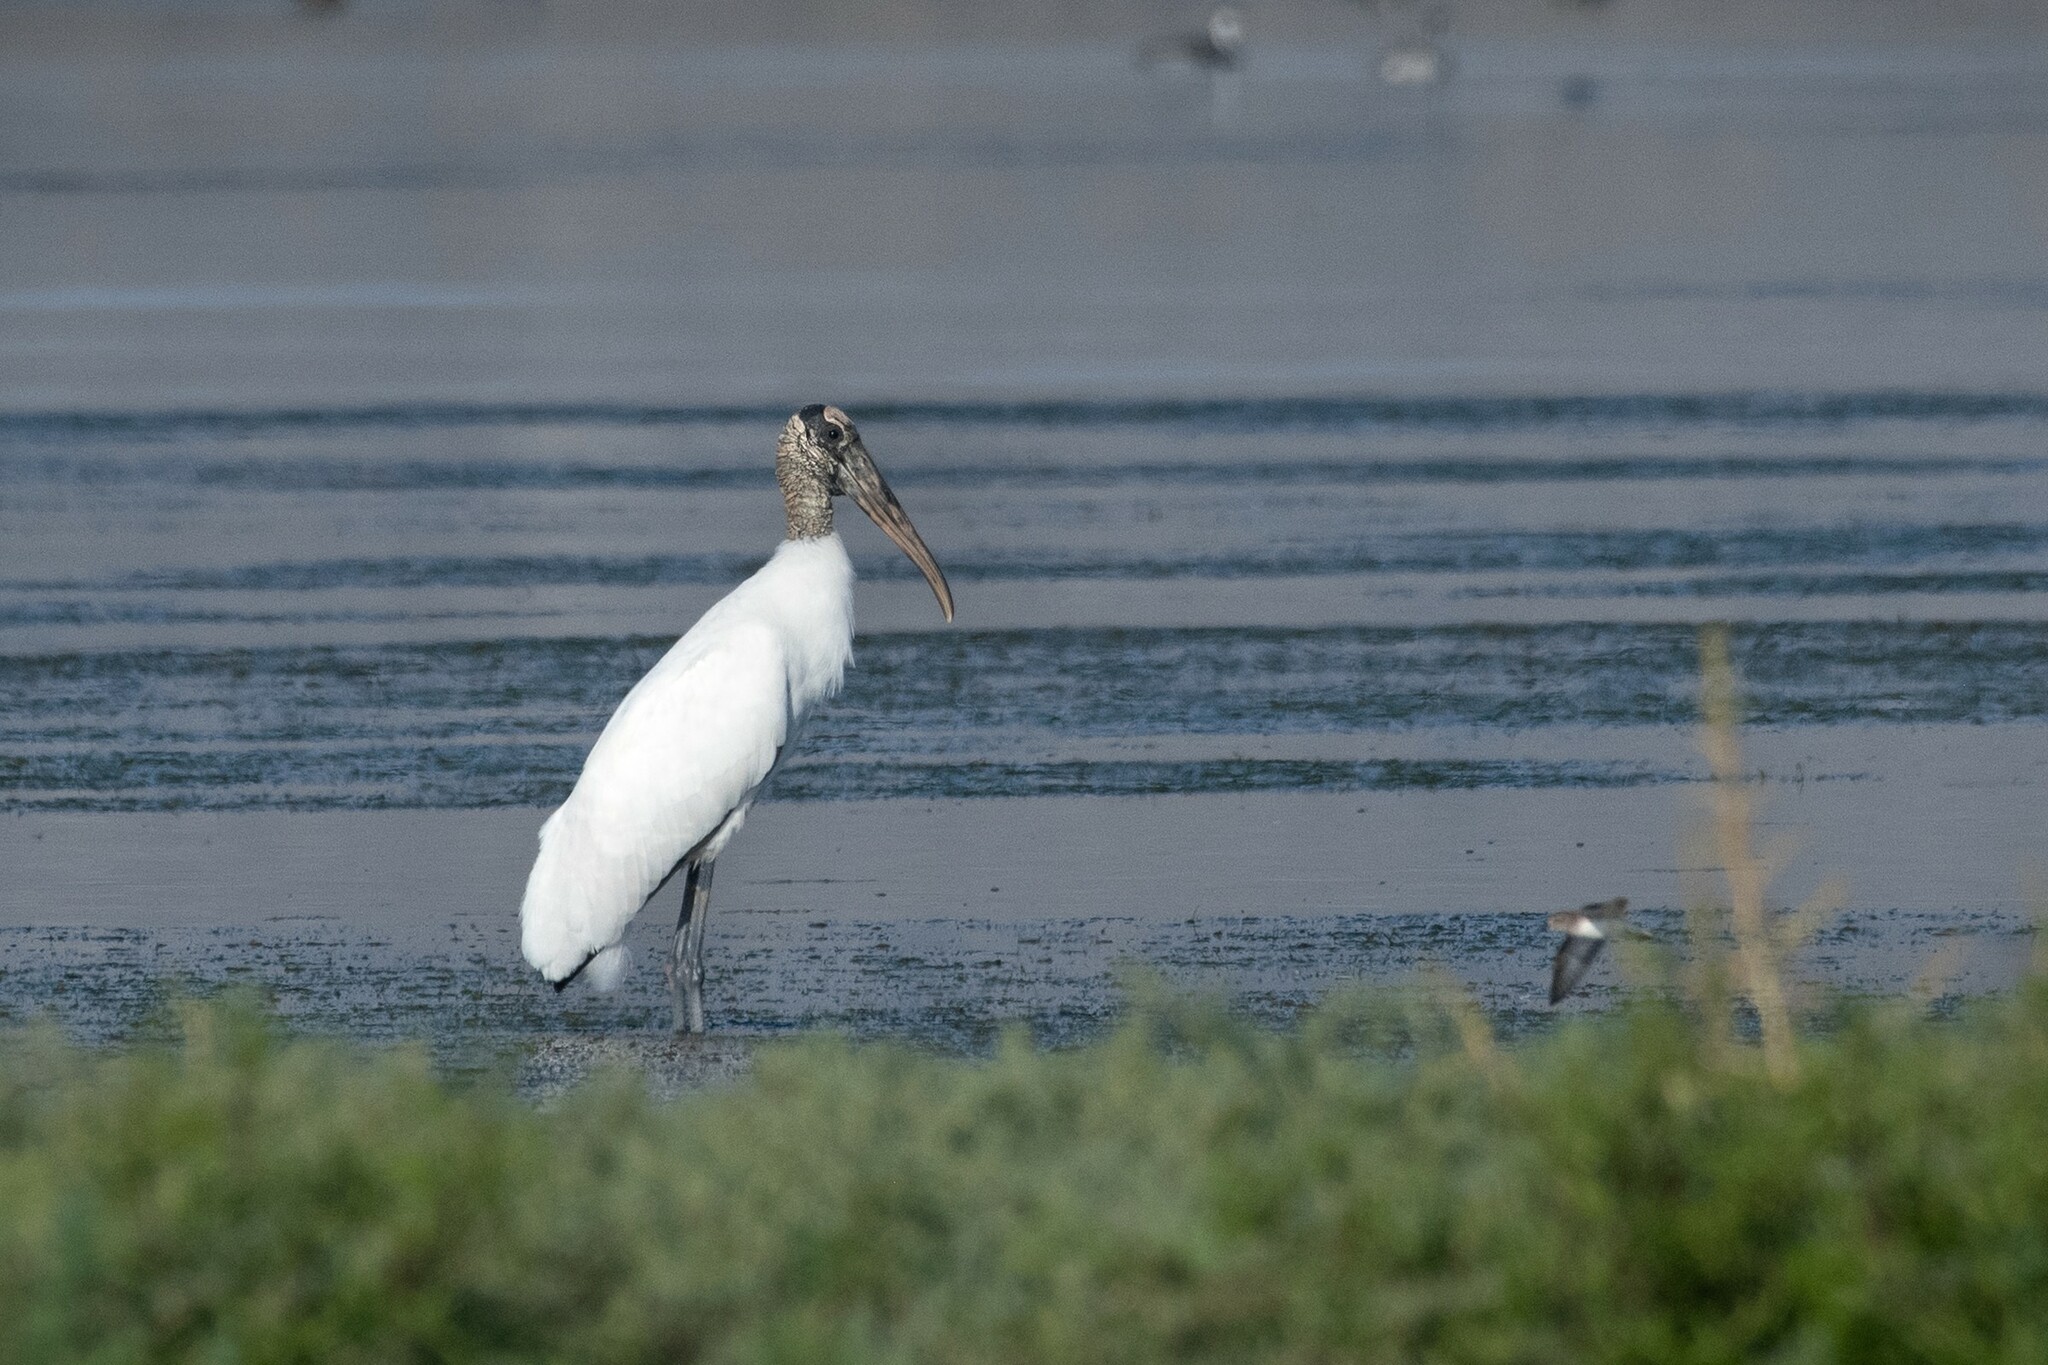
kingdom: Animalia
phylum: Chordata
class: Aves
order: Ciconiiformes
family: Ciconiidae
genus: Mycteria
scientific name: Mycteria americana
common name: Wood stork
